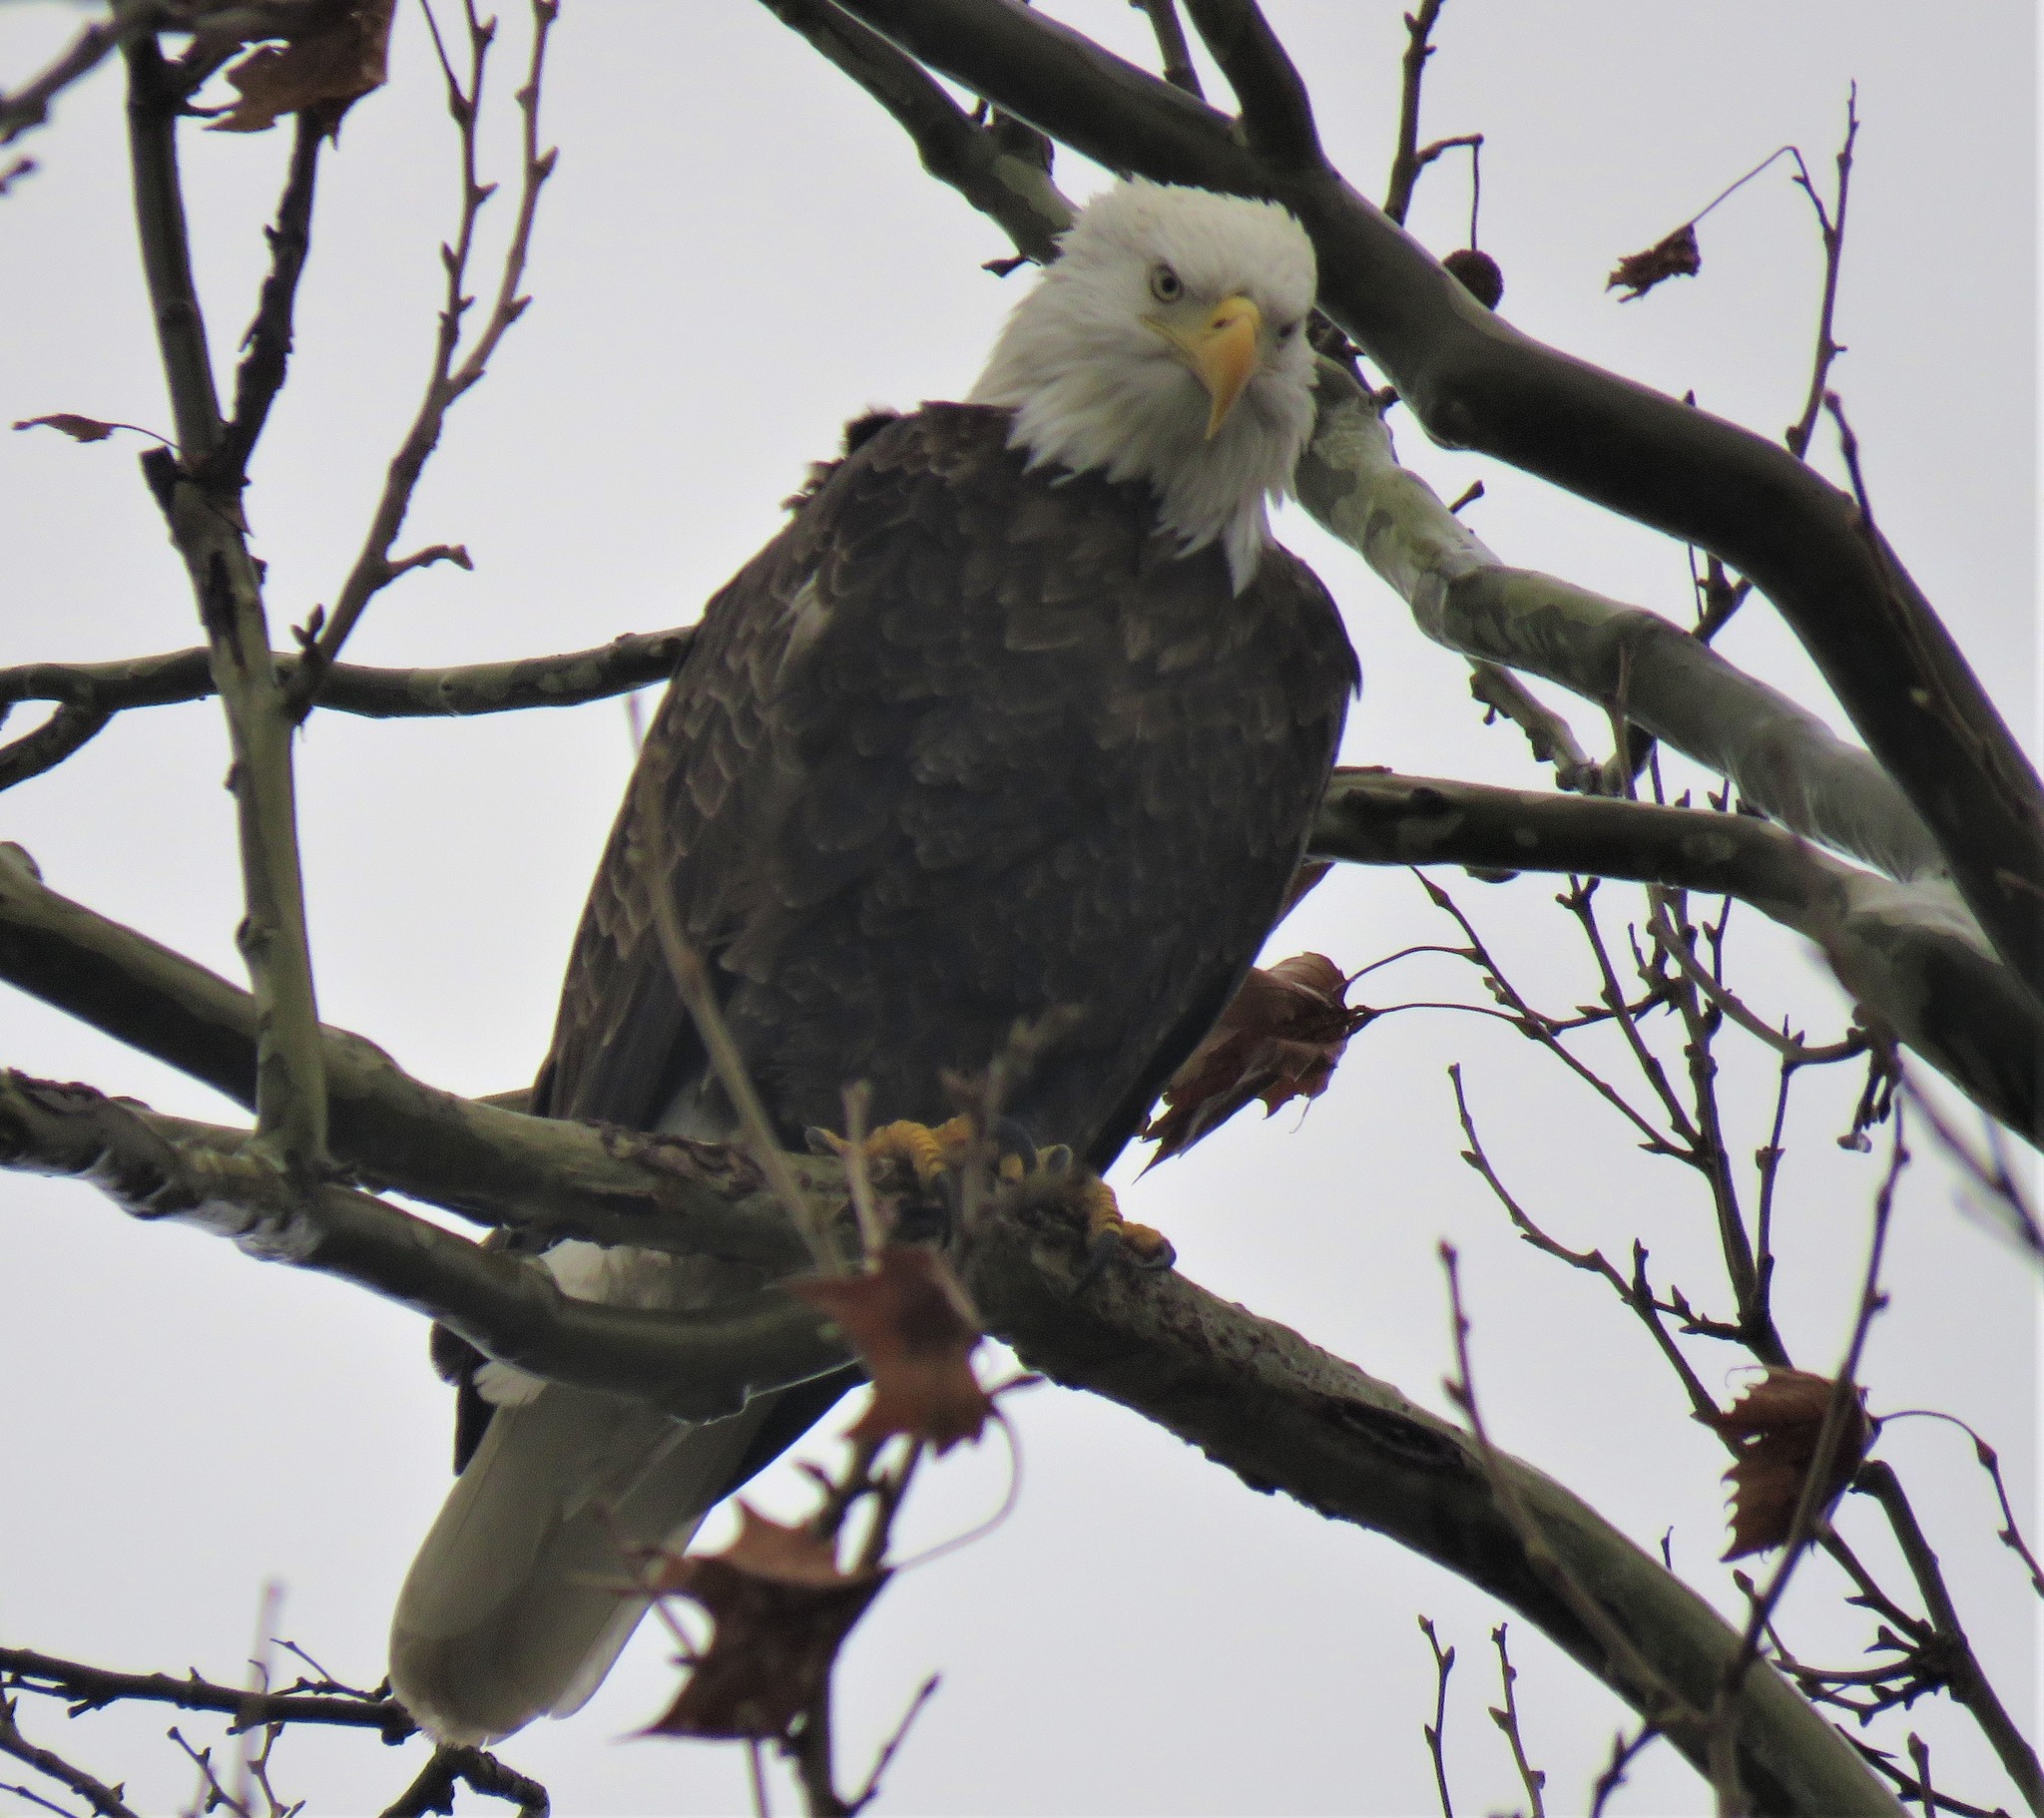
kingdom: Animalia
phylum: Chordata
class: Aves
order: Accipitriformes
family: Accipitridae
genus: Haliaeetus
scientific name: Haliaeetus leucocephalus
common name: Bald eagle
